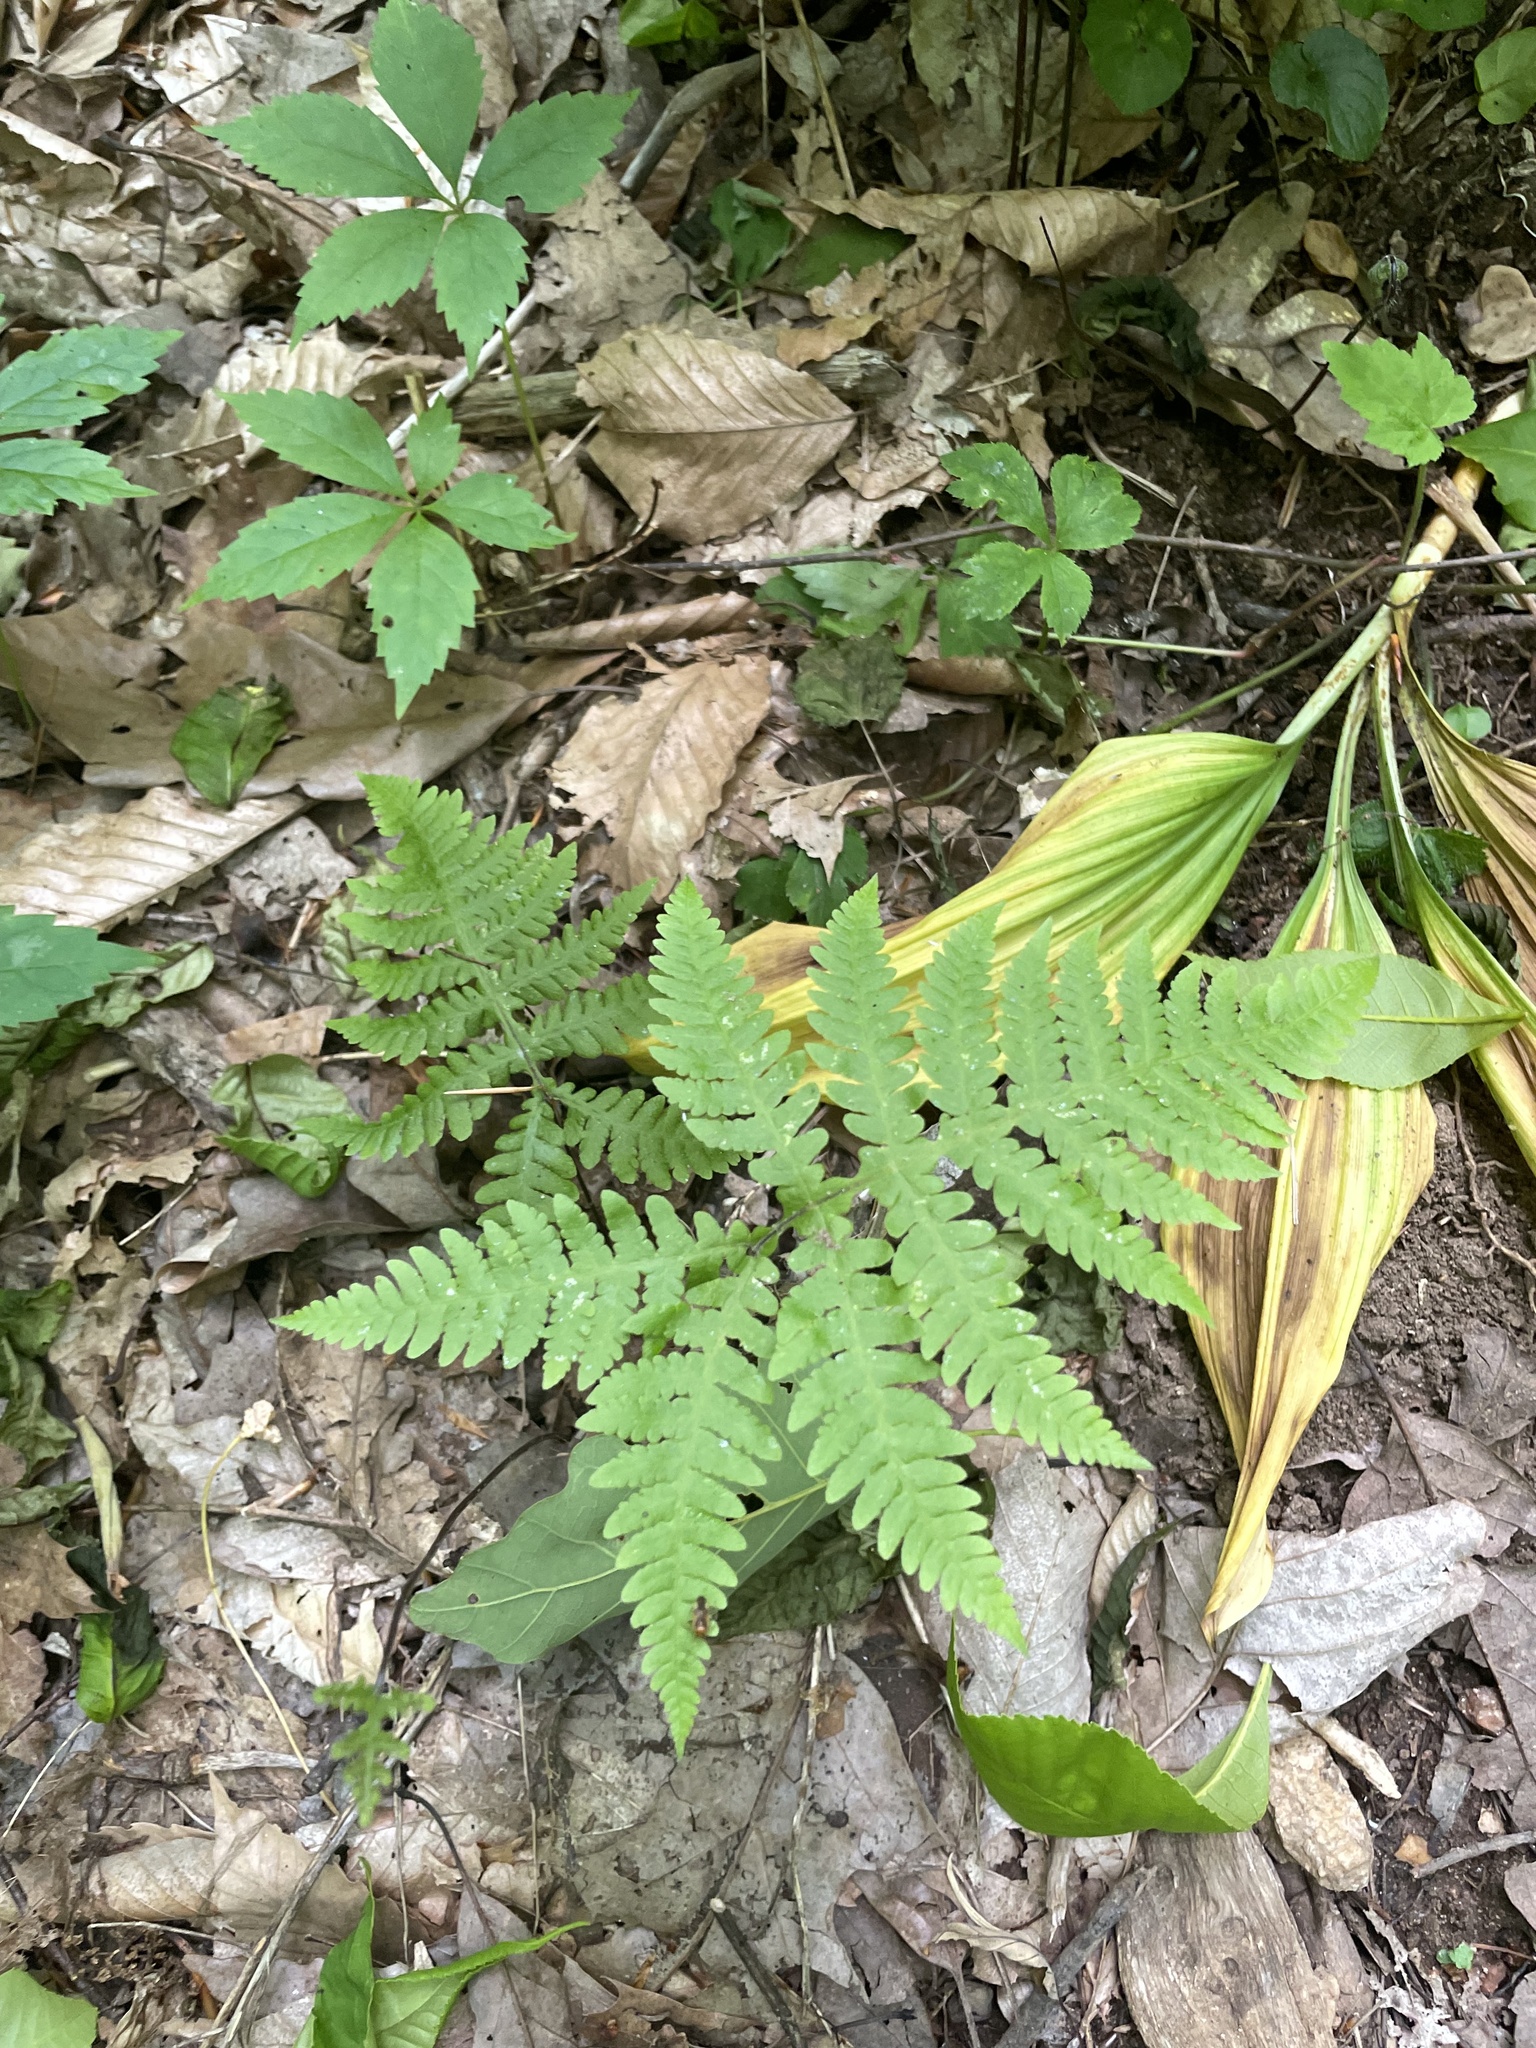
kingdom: Plantae
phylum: Tracheophyta
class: Polypodiopsida
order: Polypodiales
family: Thelypteridaceae
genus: Phegopteris
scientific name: Phegopteris hexagonoptera
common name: Broad beech fern
